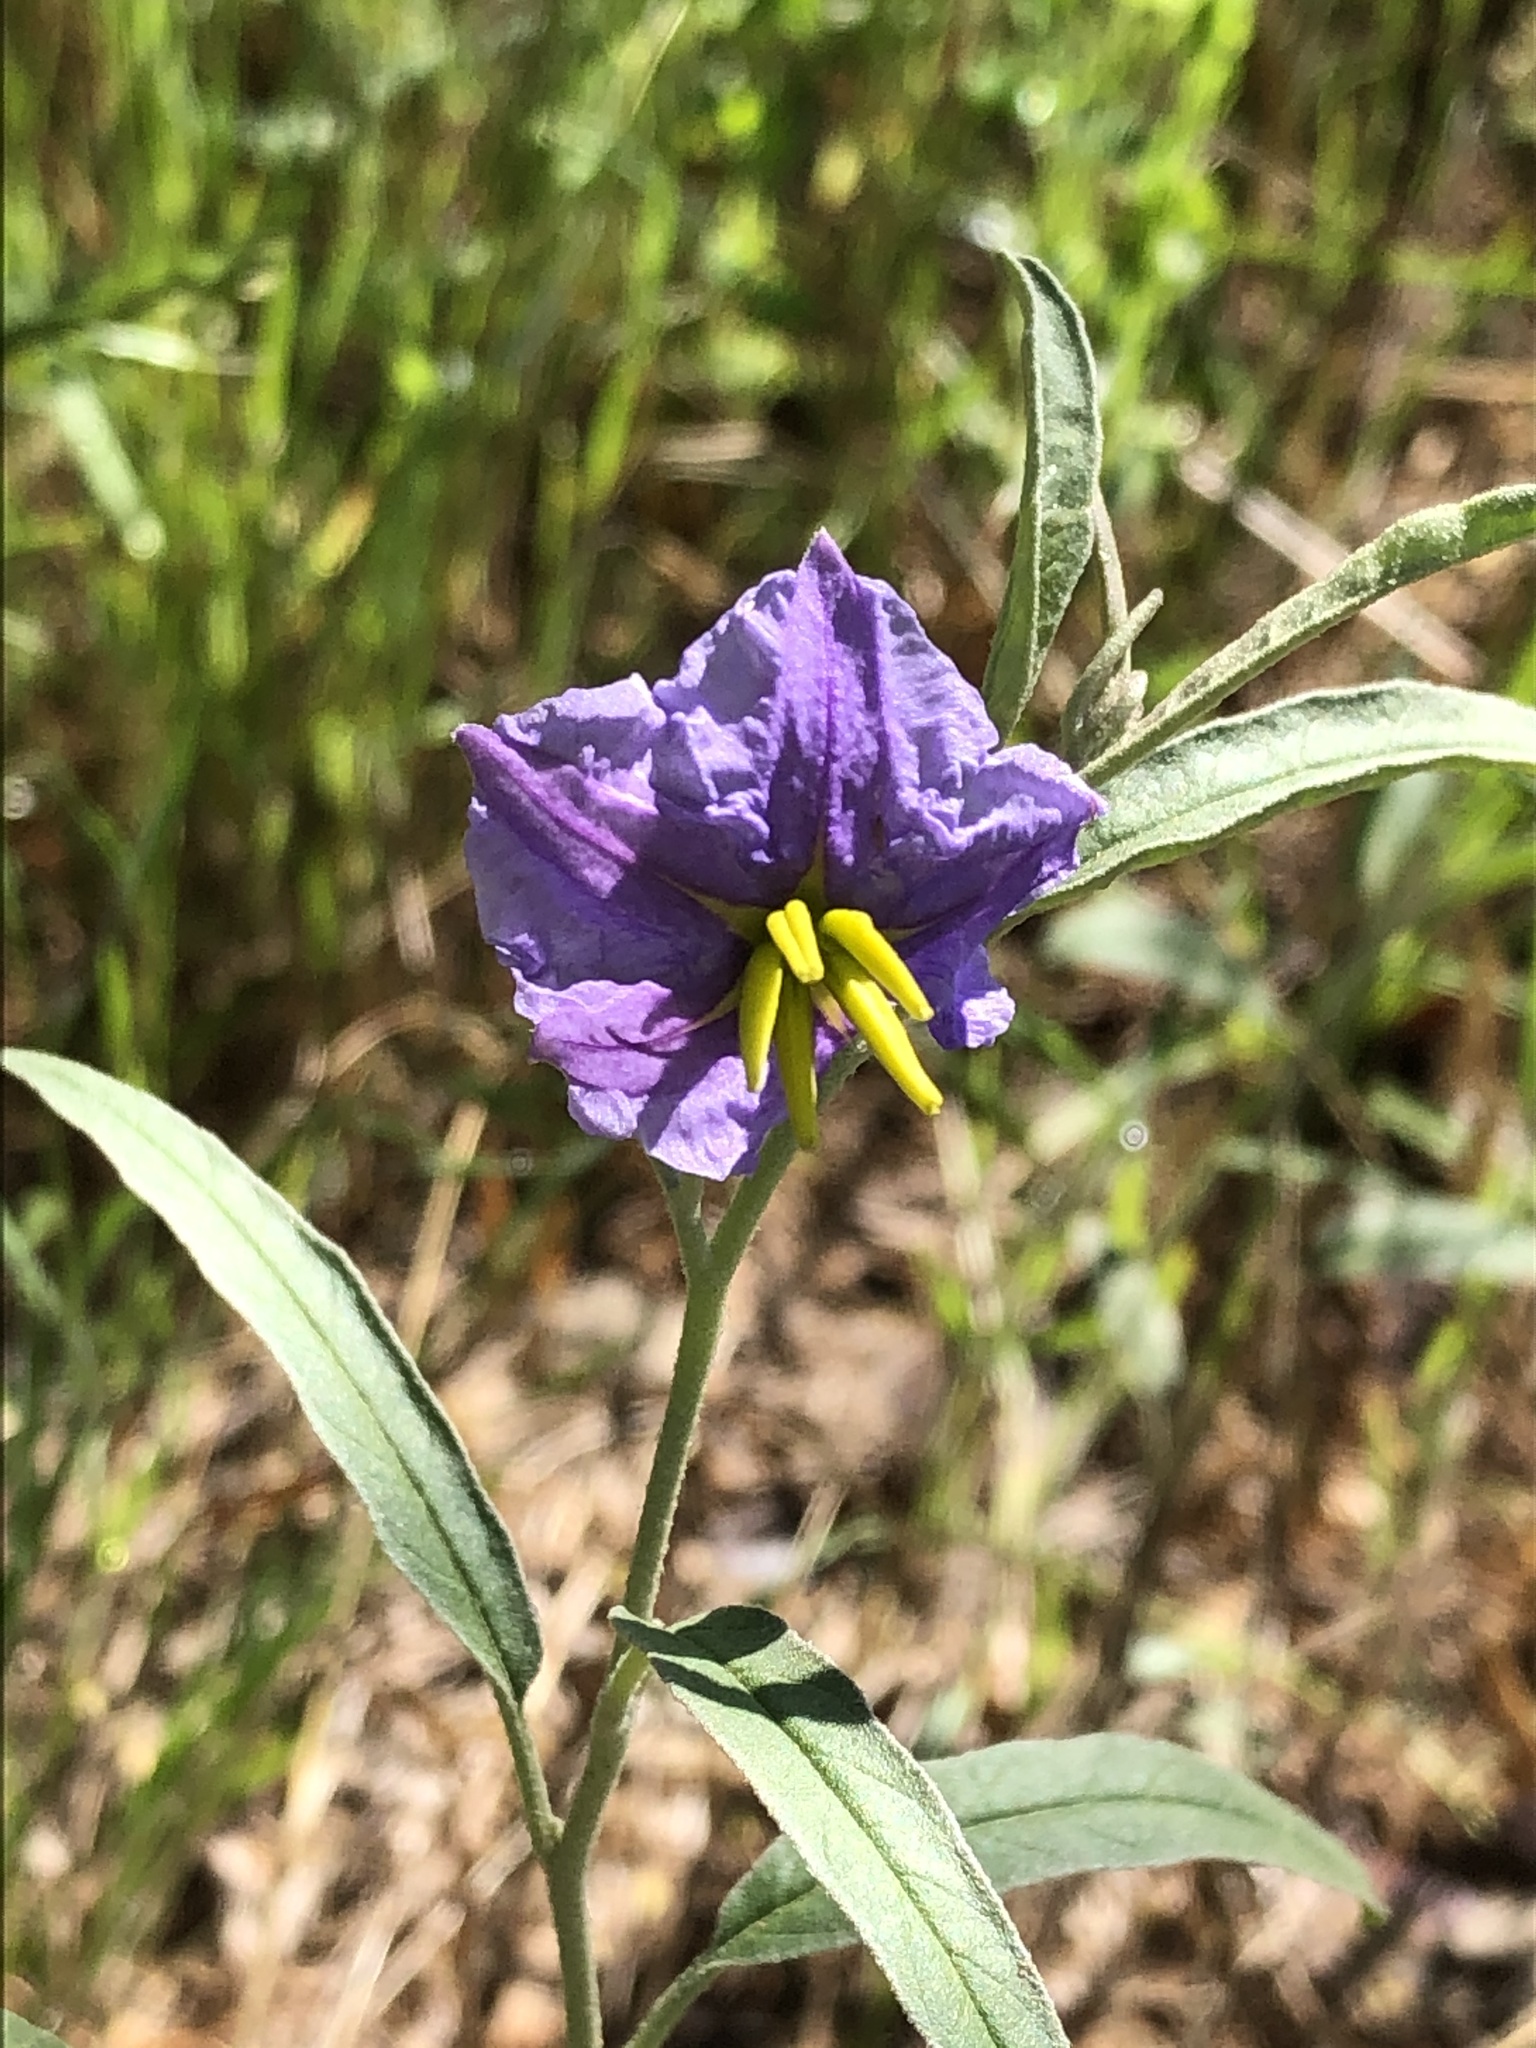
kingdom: Plantae
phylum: Tracheophyta
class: Magnoliopsida
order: Solanales
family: Solanaceae
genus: Solanum
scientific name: Solanum elaeagnifolium
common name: Silverleaf nightshade
